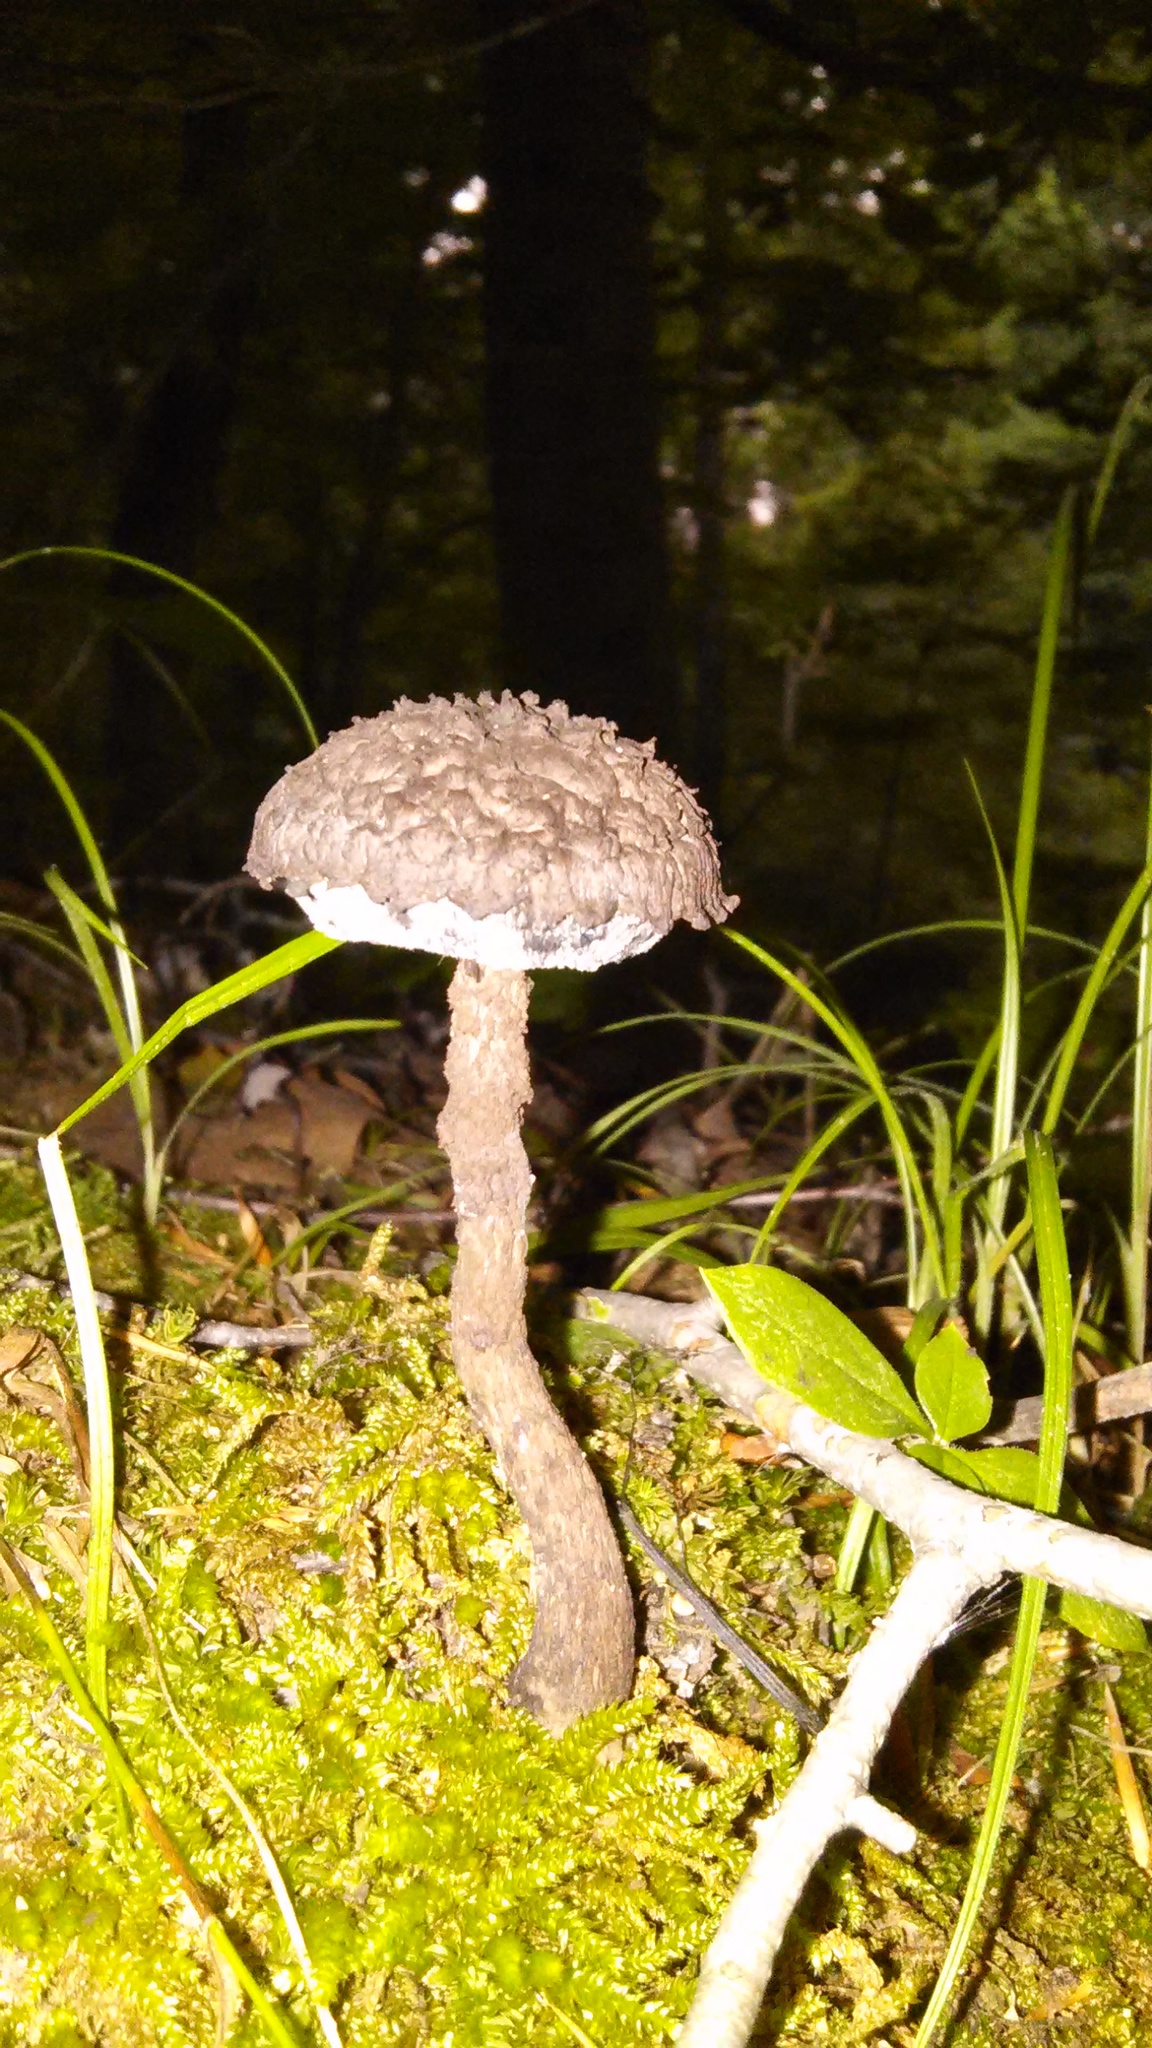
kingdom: Fungi
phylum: Basidiomycota
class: Agaricomycetes
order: Boletales
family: Boletaceae
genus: Strobilomyces
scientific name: Strobilomyces strobilaceus
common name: Old man of the woods
